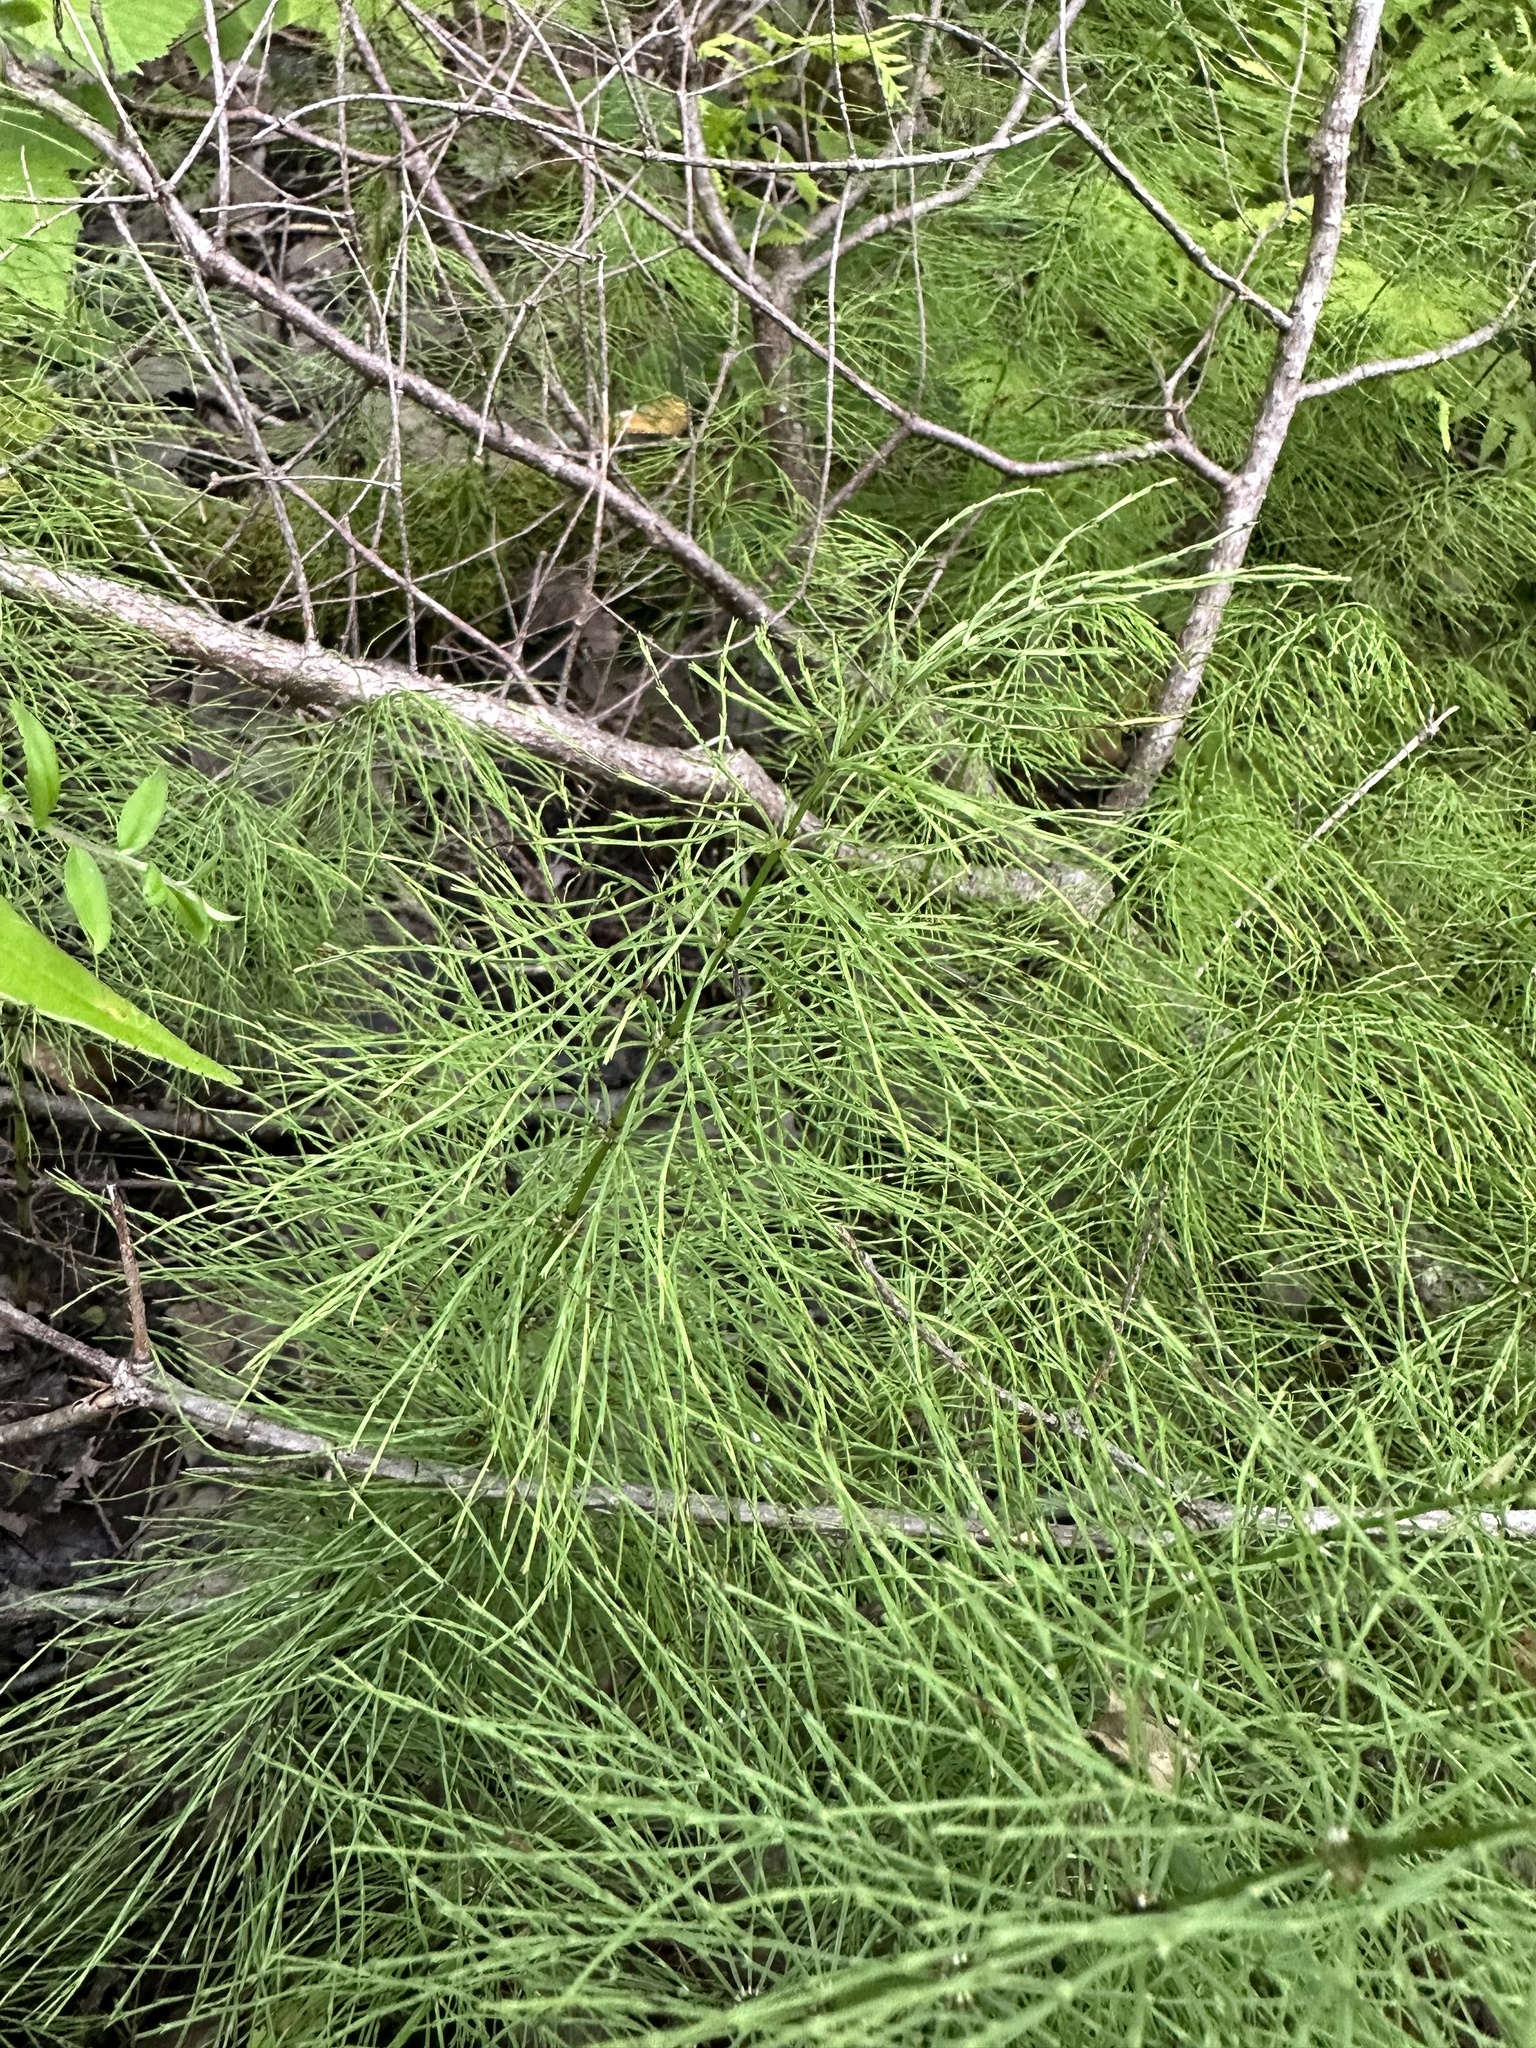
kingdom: Plantae
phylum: Tracheophyta
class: Polypodiopsida
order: Equisetales
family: Equisetaceae
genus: Equisetum
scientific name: Equisetum sylvaticum
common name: Wood horsetail
